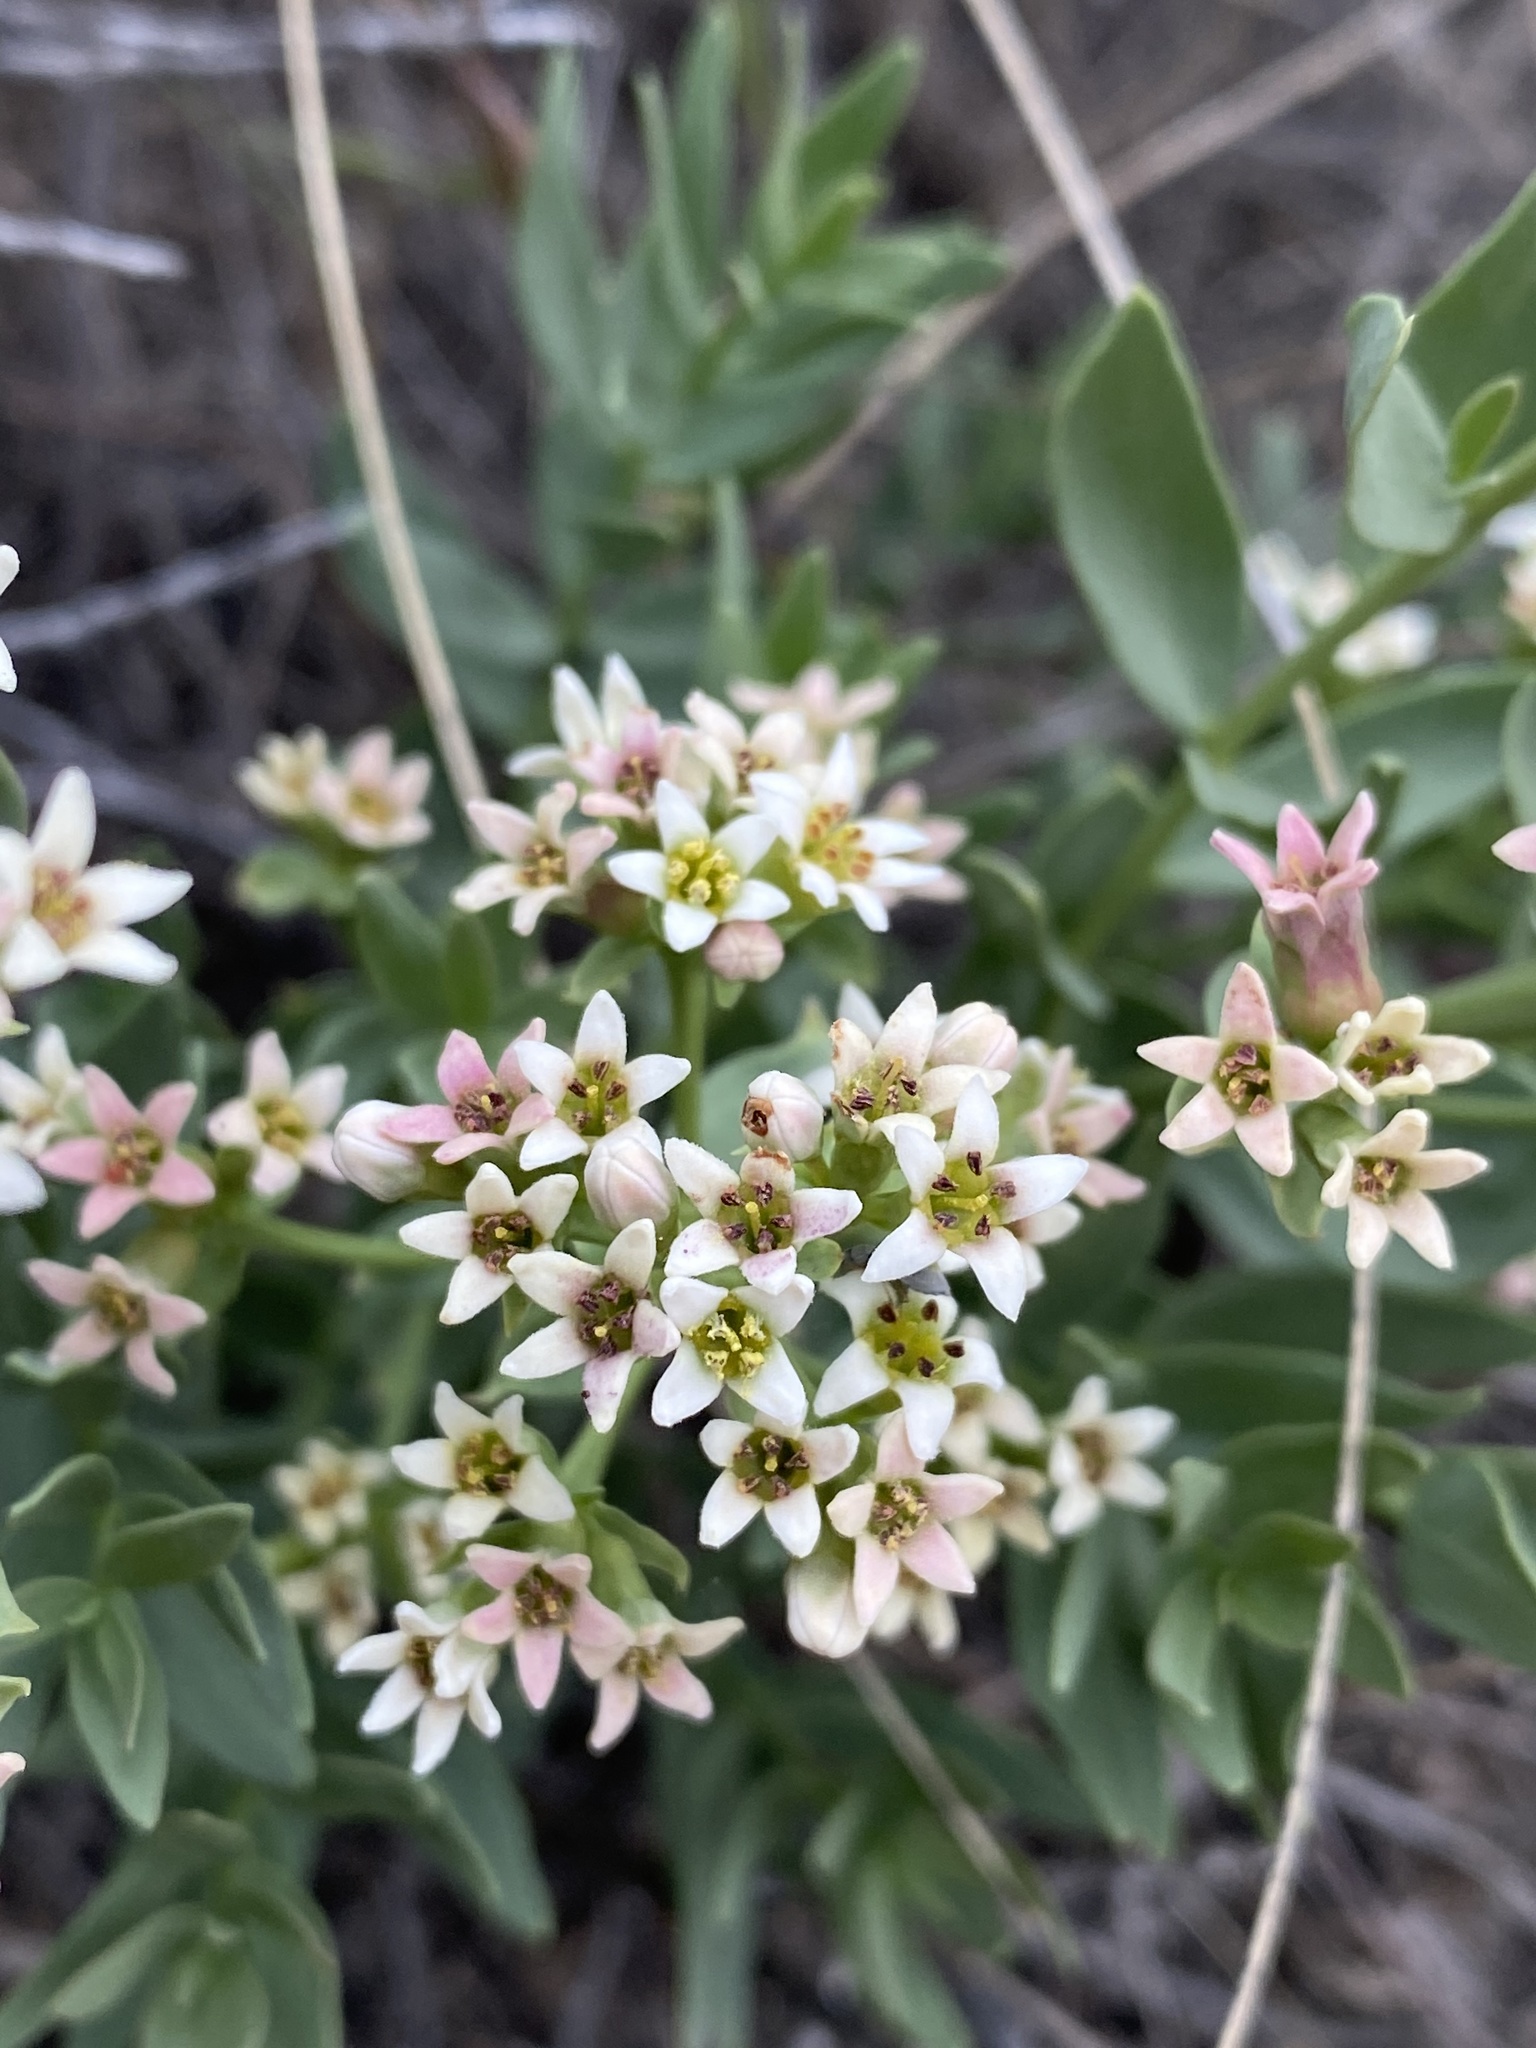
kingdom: Plantae
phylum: Tracheophyta
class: Magnoliopsida
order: Santalales
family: Comandraceae
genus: Comandra
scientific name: Comandra umbellata
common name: Bastard toadflax
